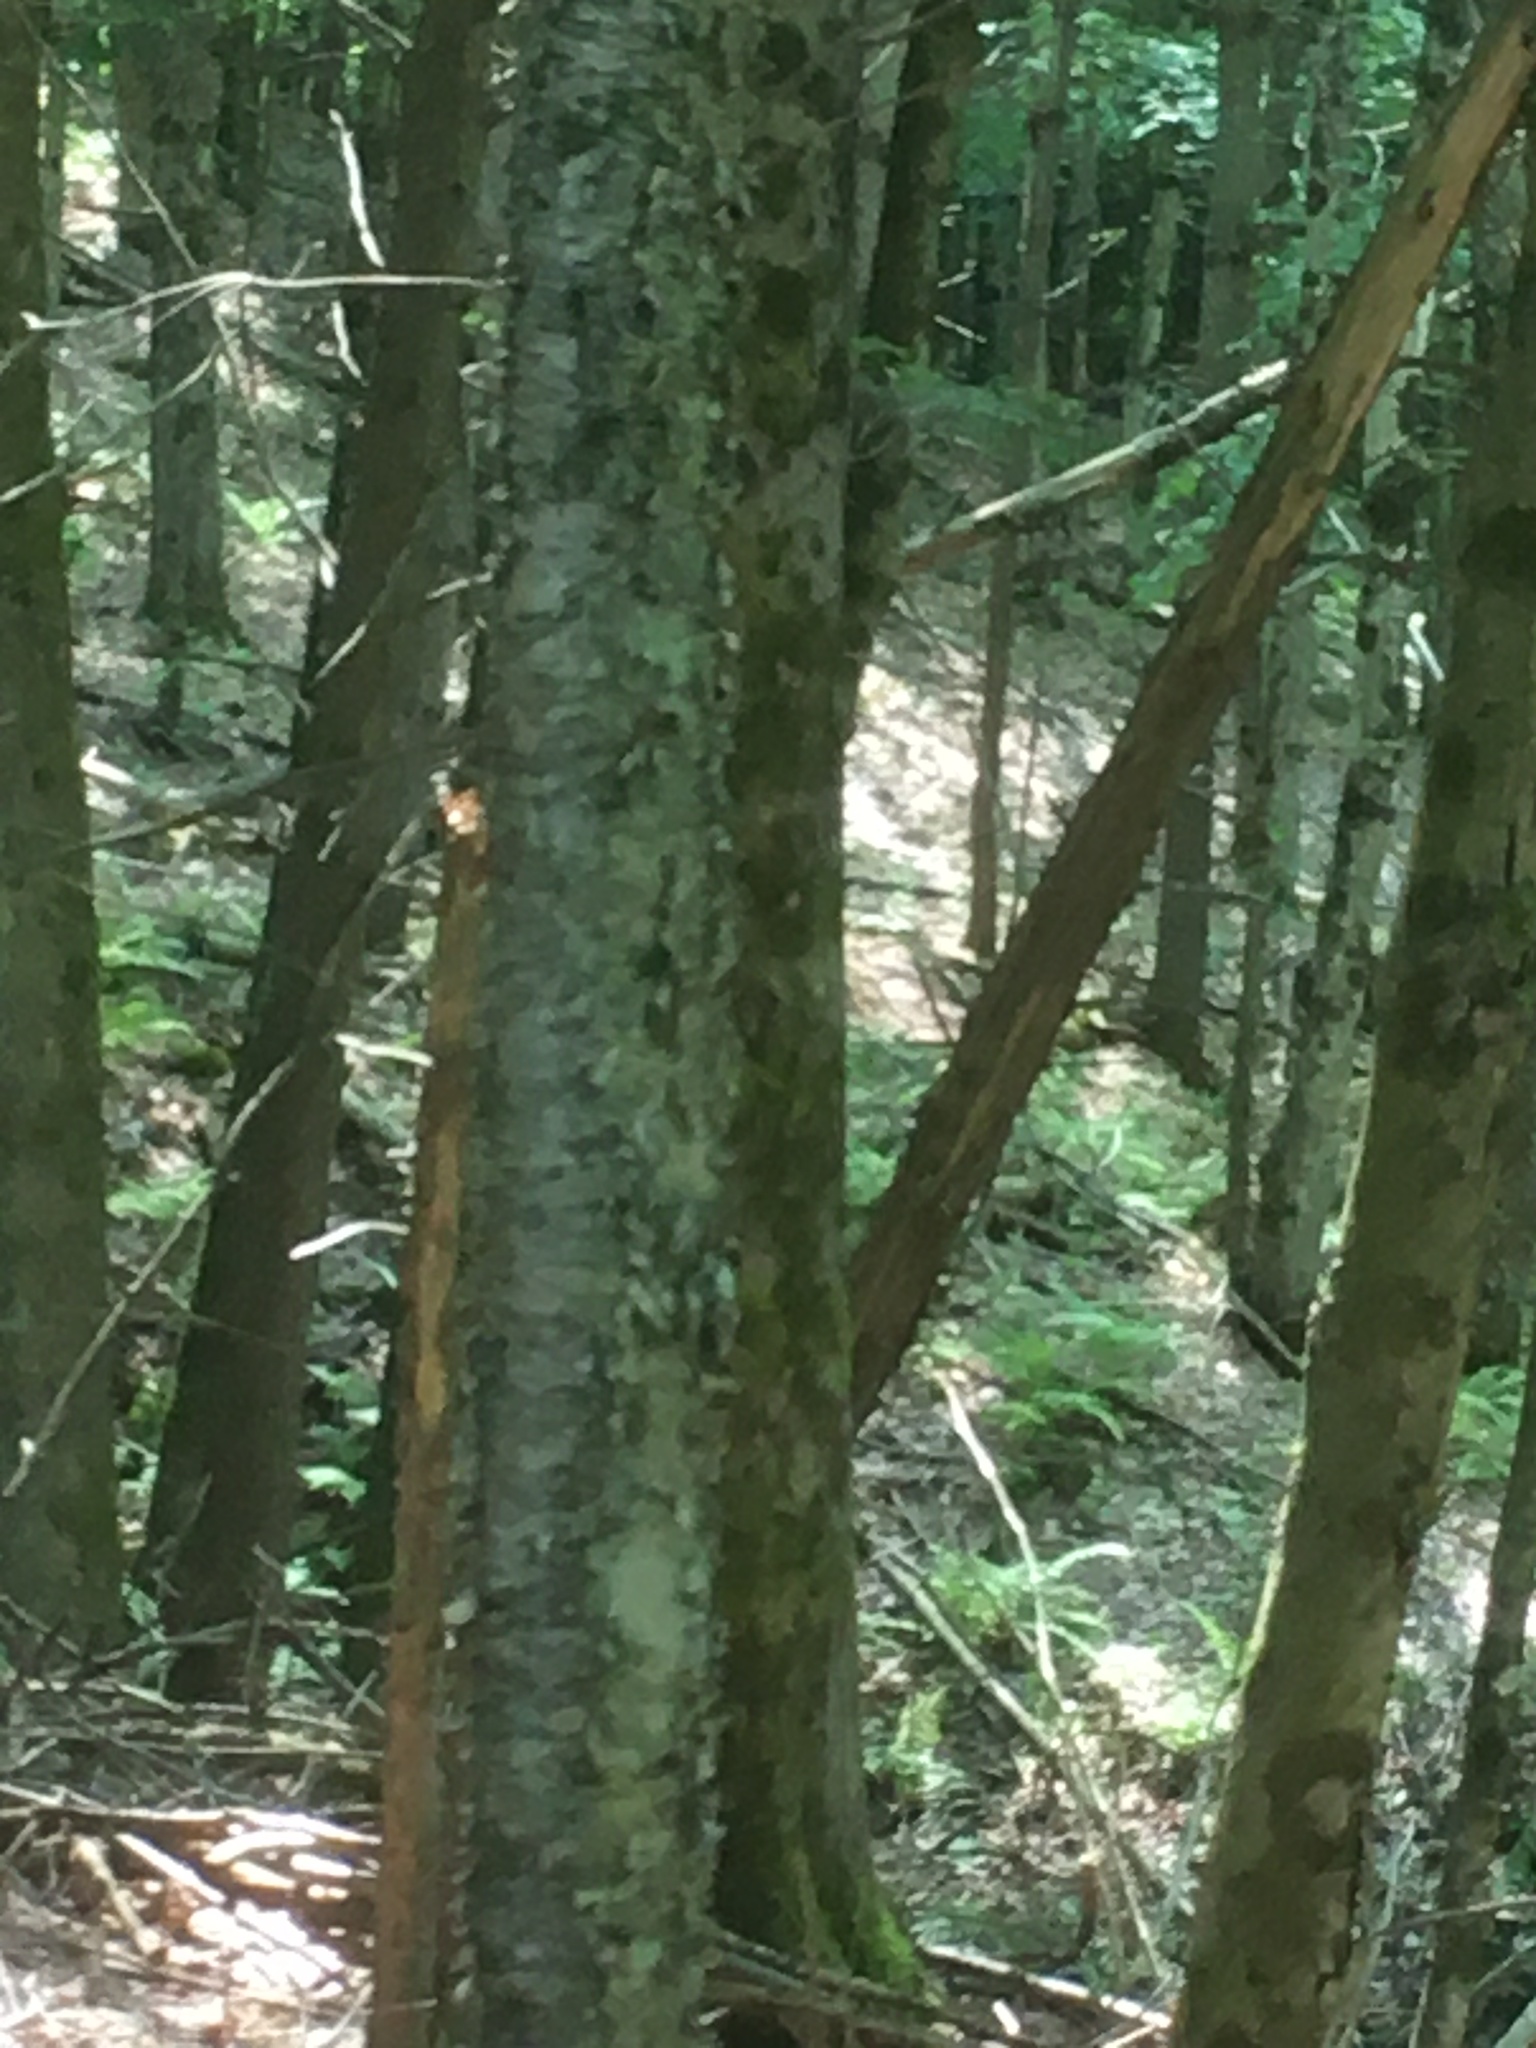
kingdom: Plantae
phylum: Tracheophyta
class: Magnoliopsida
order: Fagales
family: Betulaceae
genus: Betula
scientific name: Betula alleghaniensis
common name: Yellow birch
